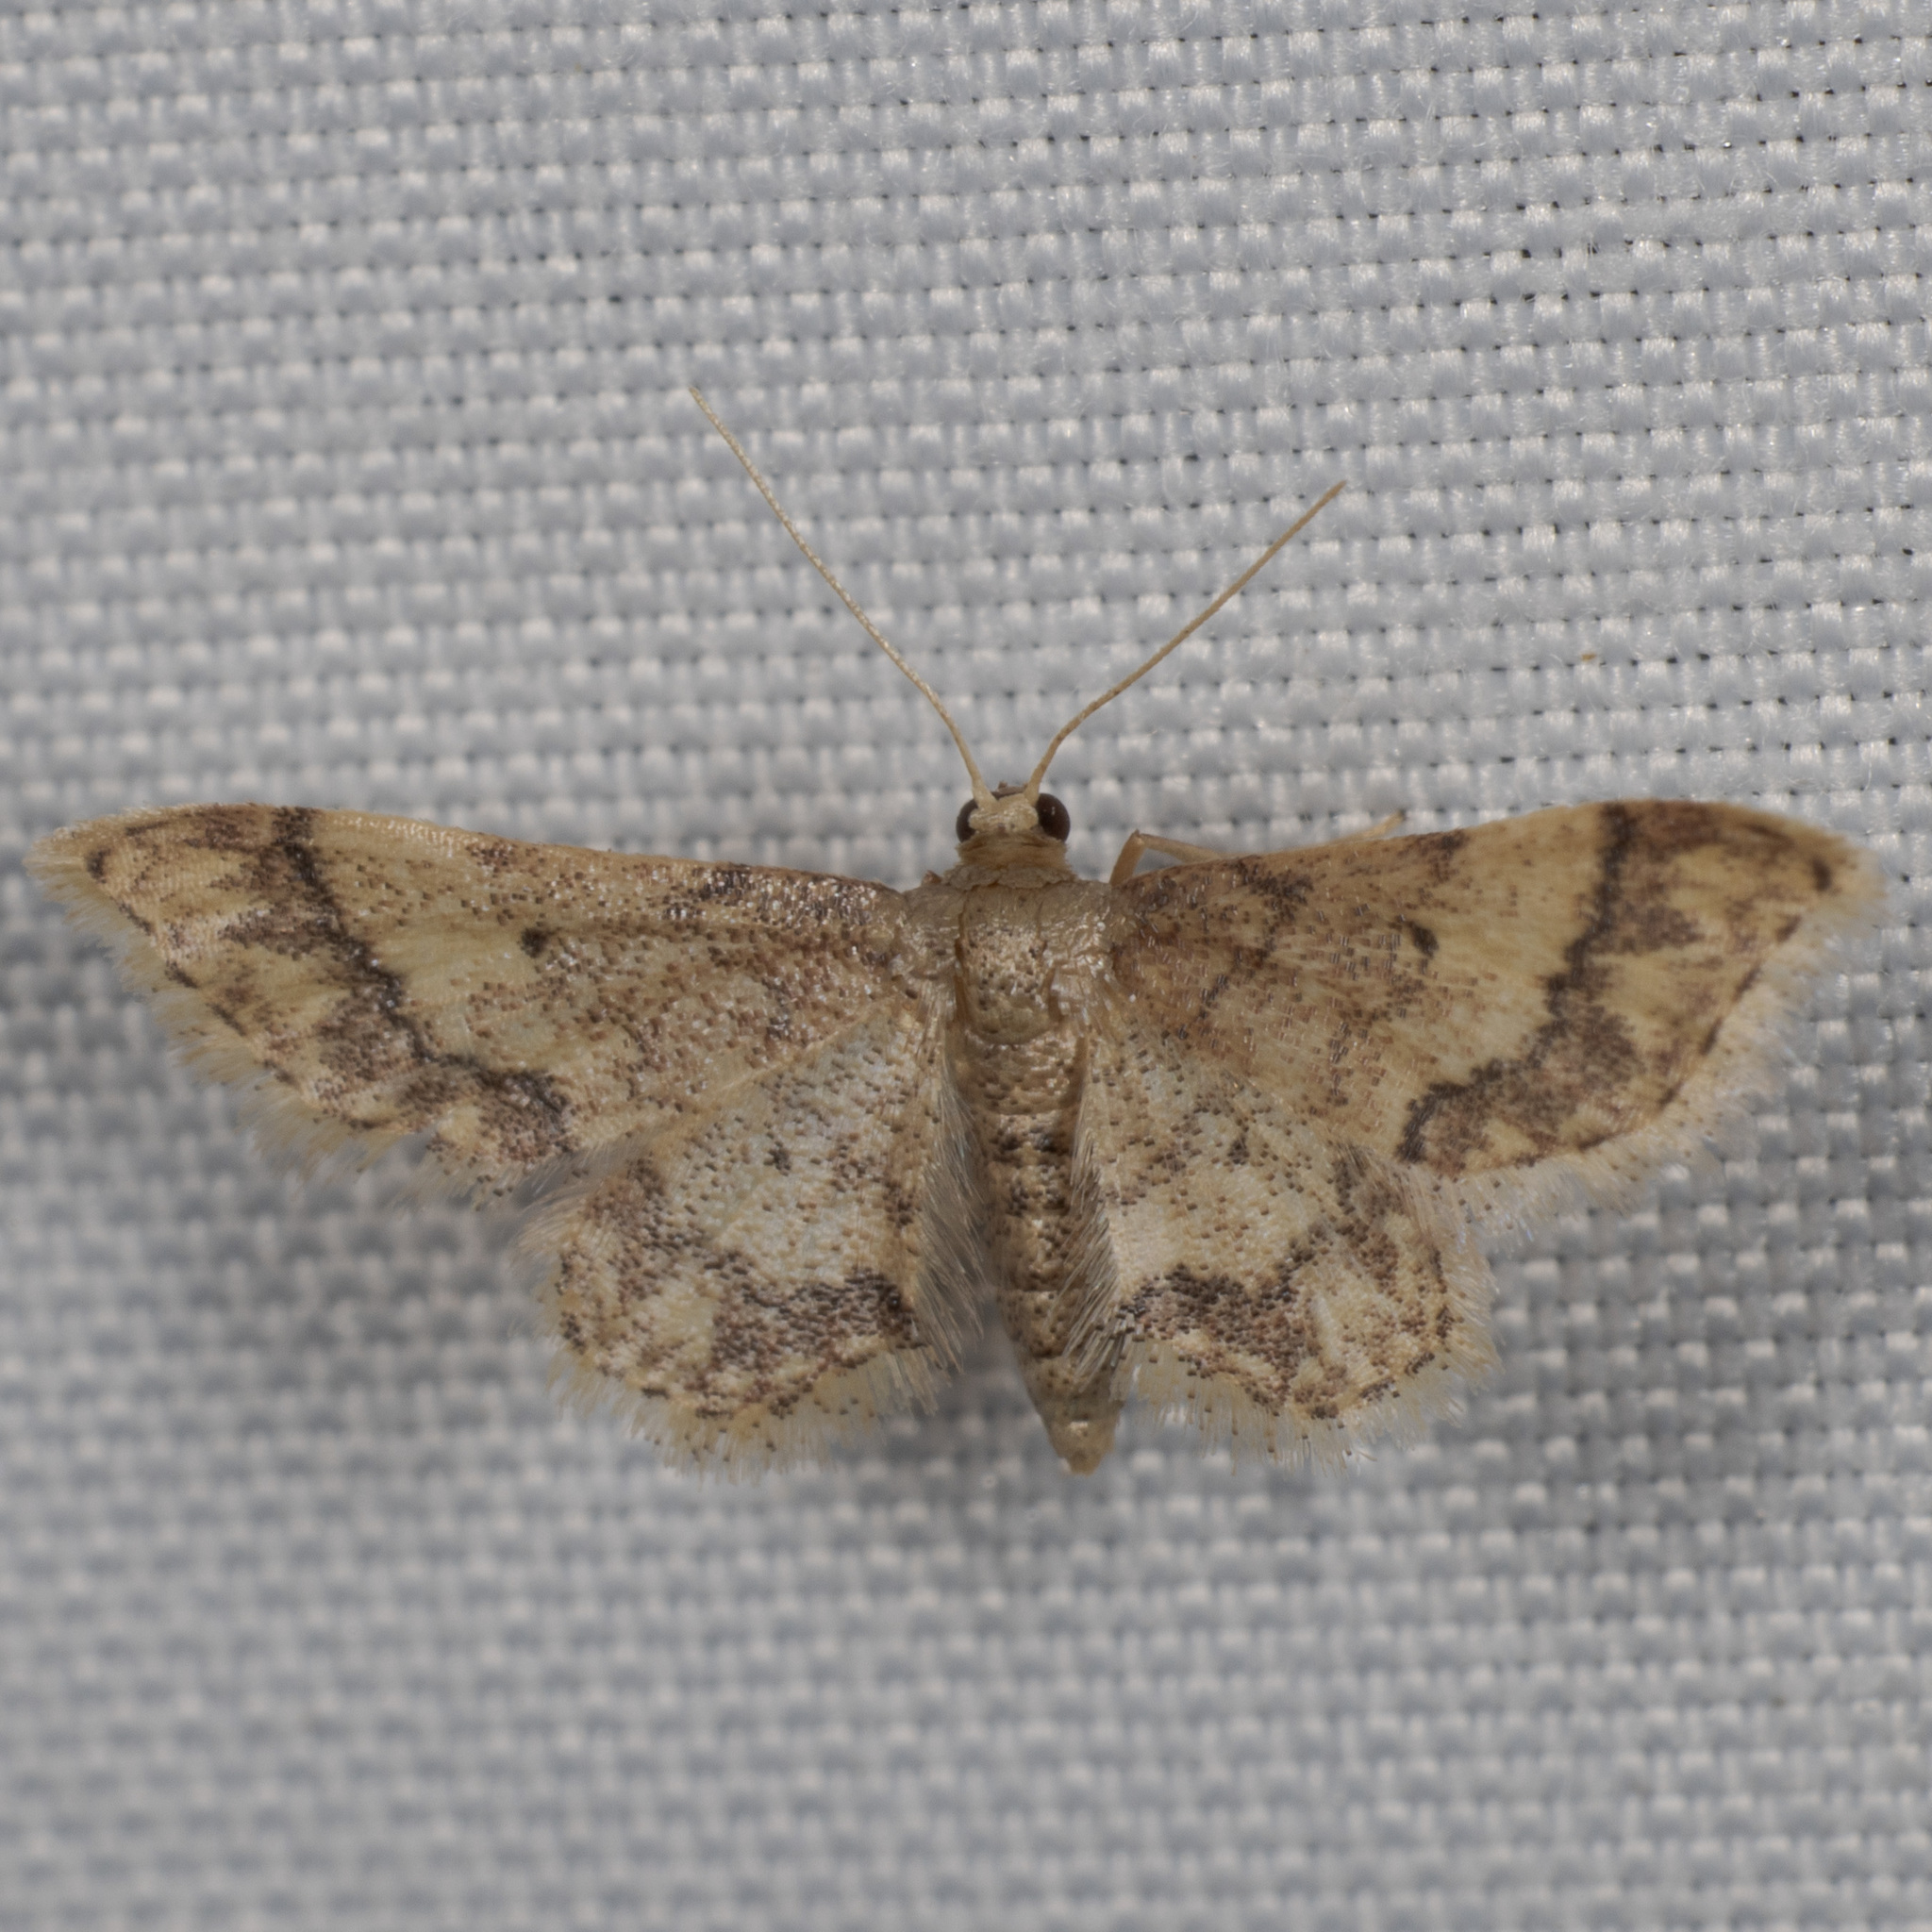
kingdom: Animalia
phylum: Arthropoda
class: Insecta
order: Lepidoptera
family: Geometridae
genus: Idaea
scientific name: Idaea celtima
